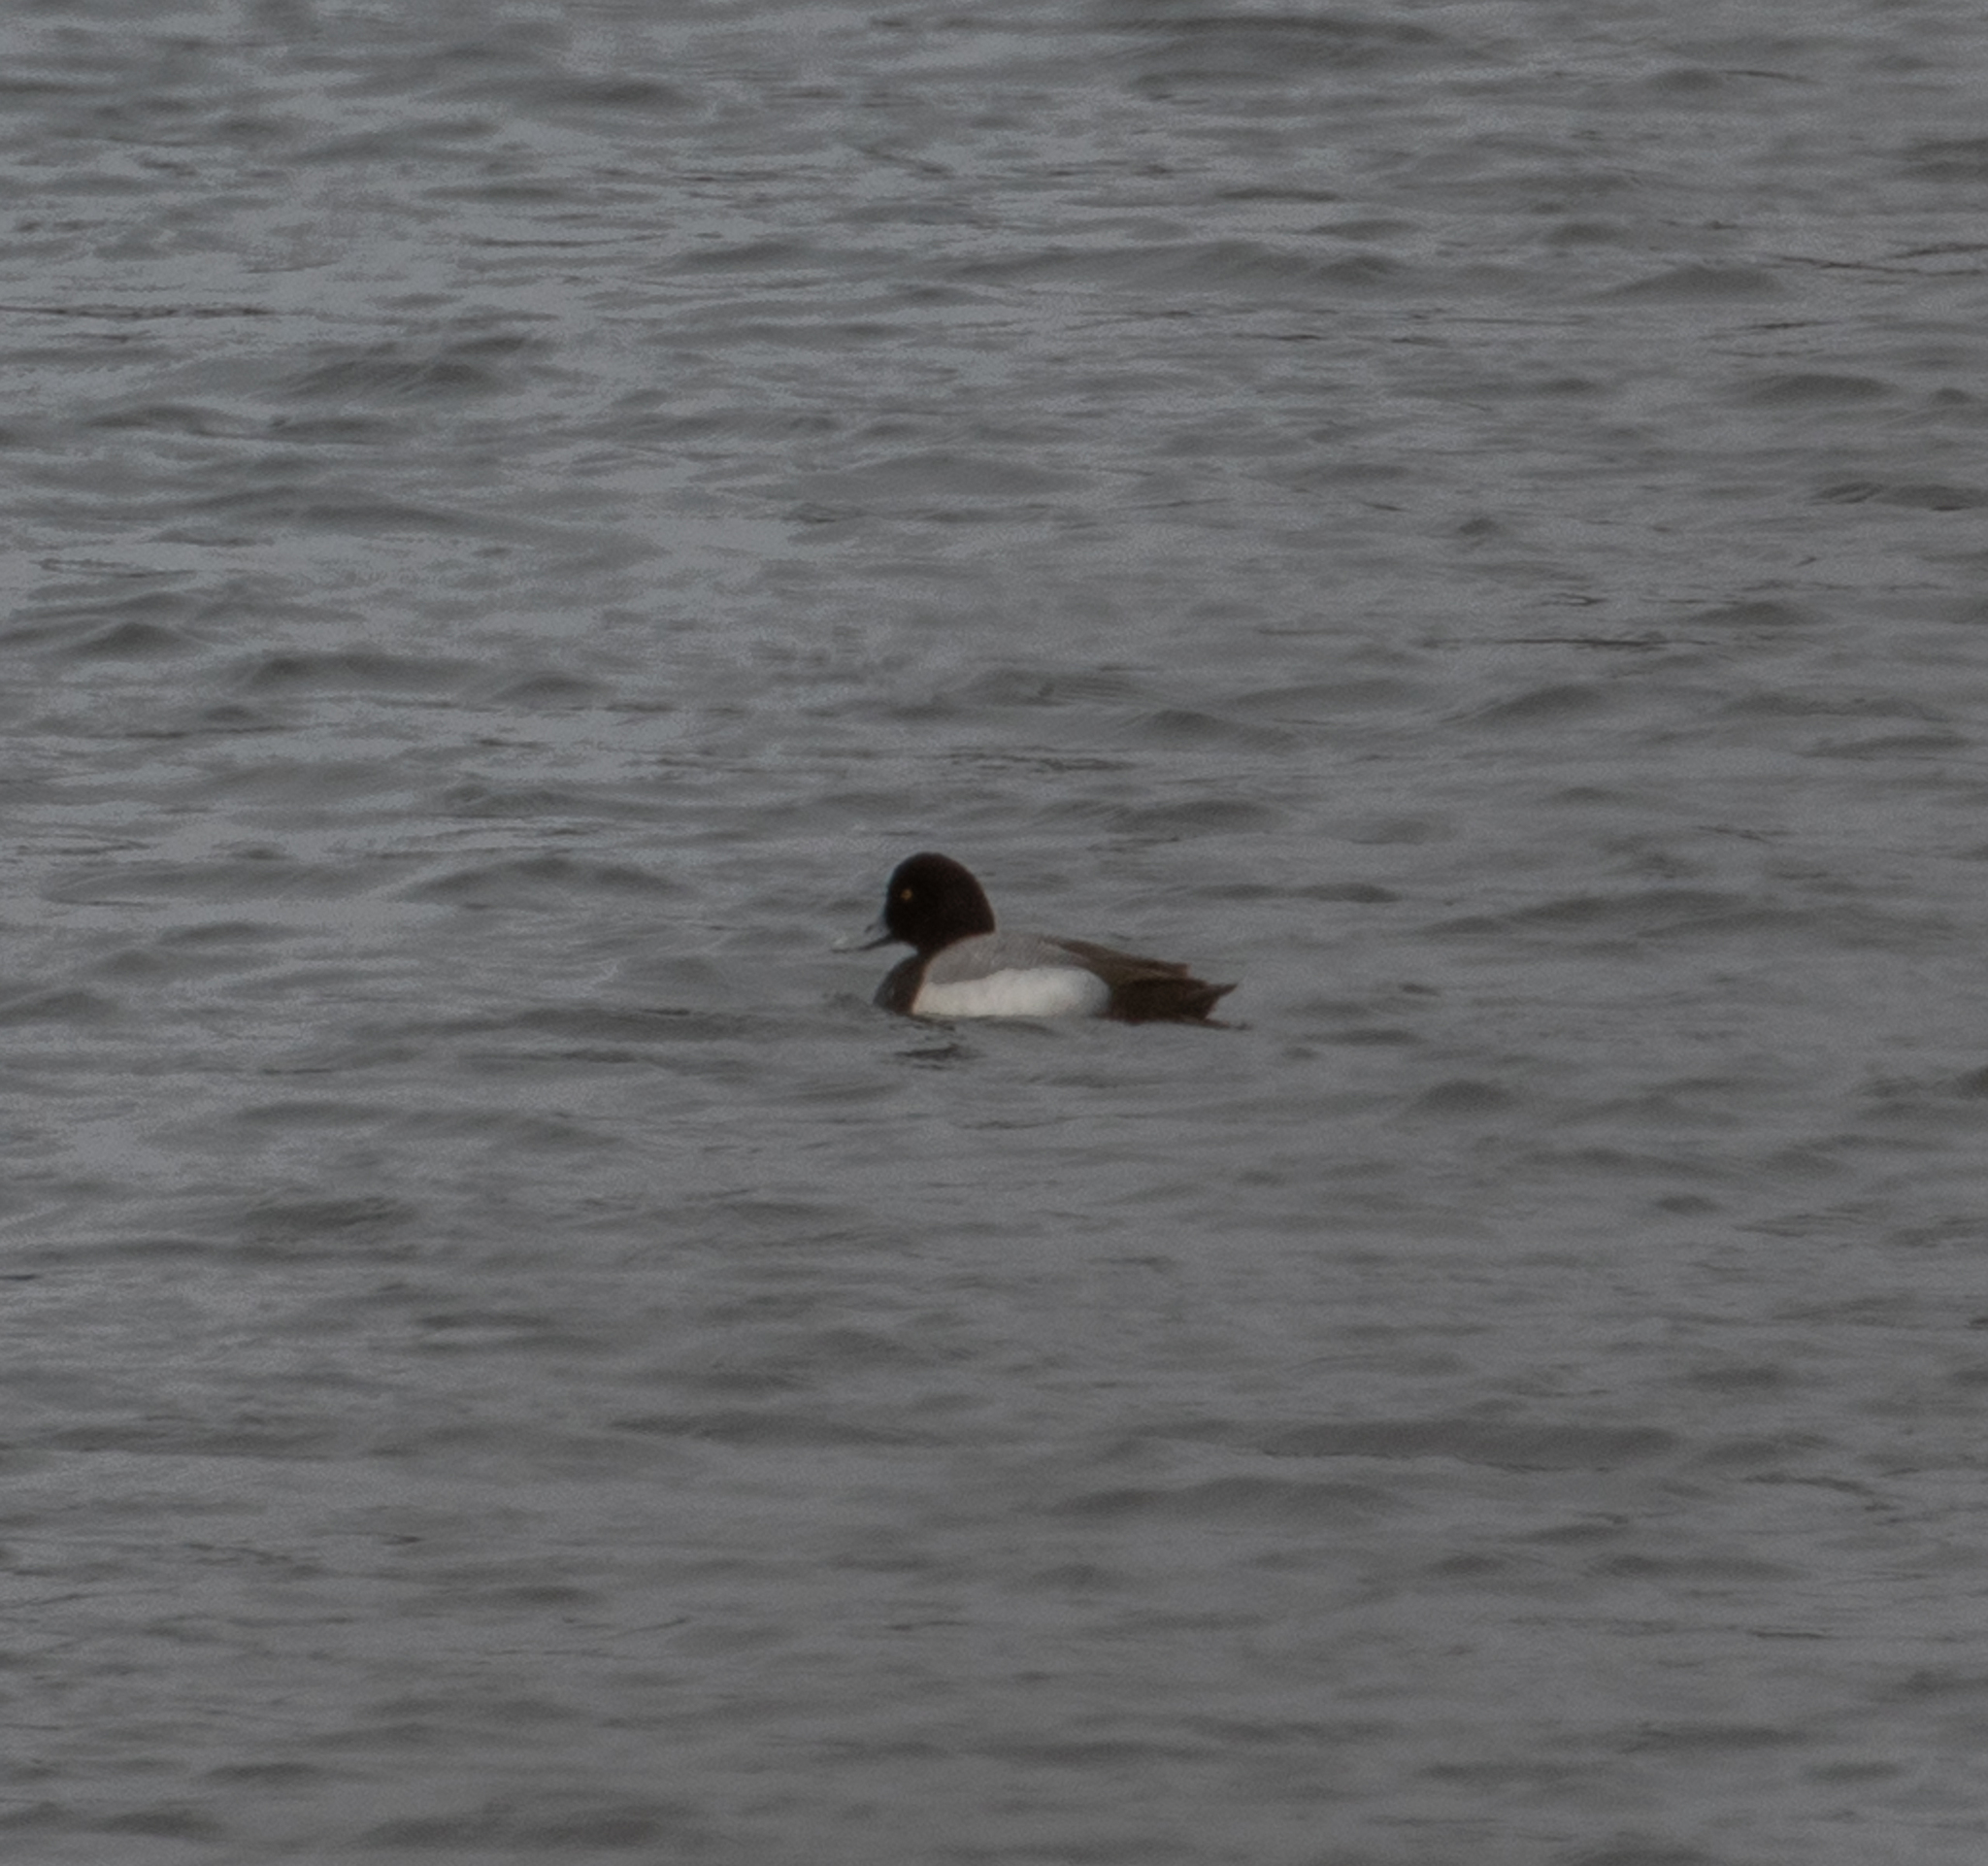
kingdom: Animalia
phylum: Chordata
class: Aves
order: Anseriformes
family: Anatidae
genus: Aythya
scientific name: Aythya marila
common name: Greater scaup
